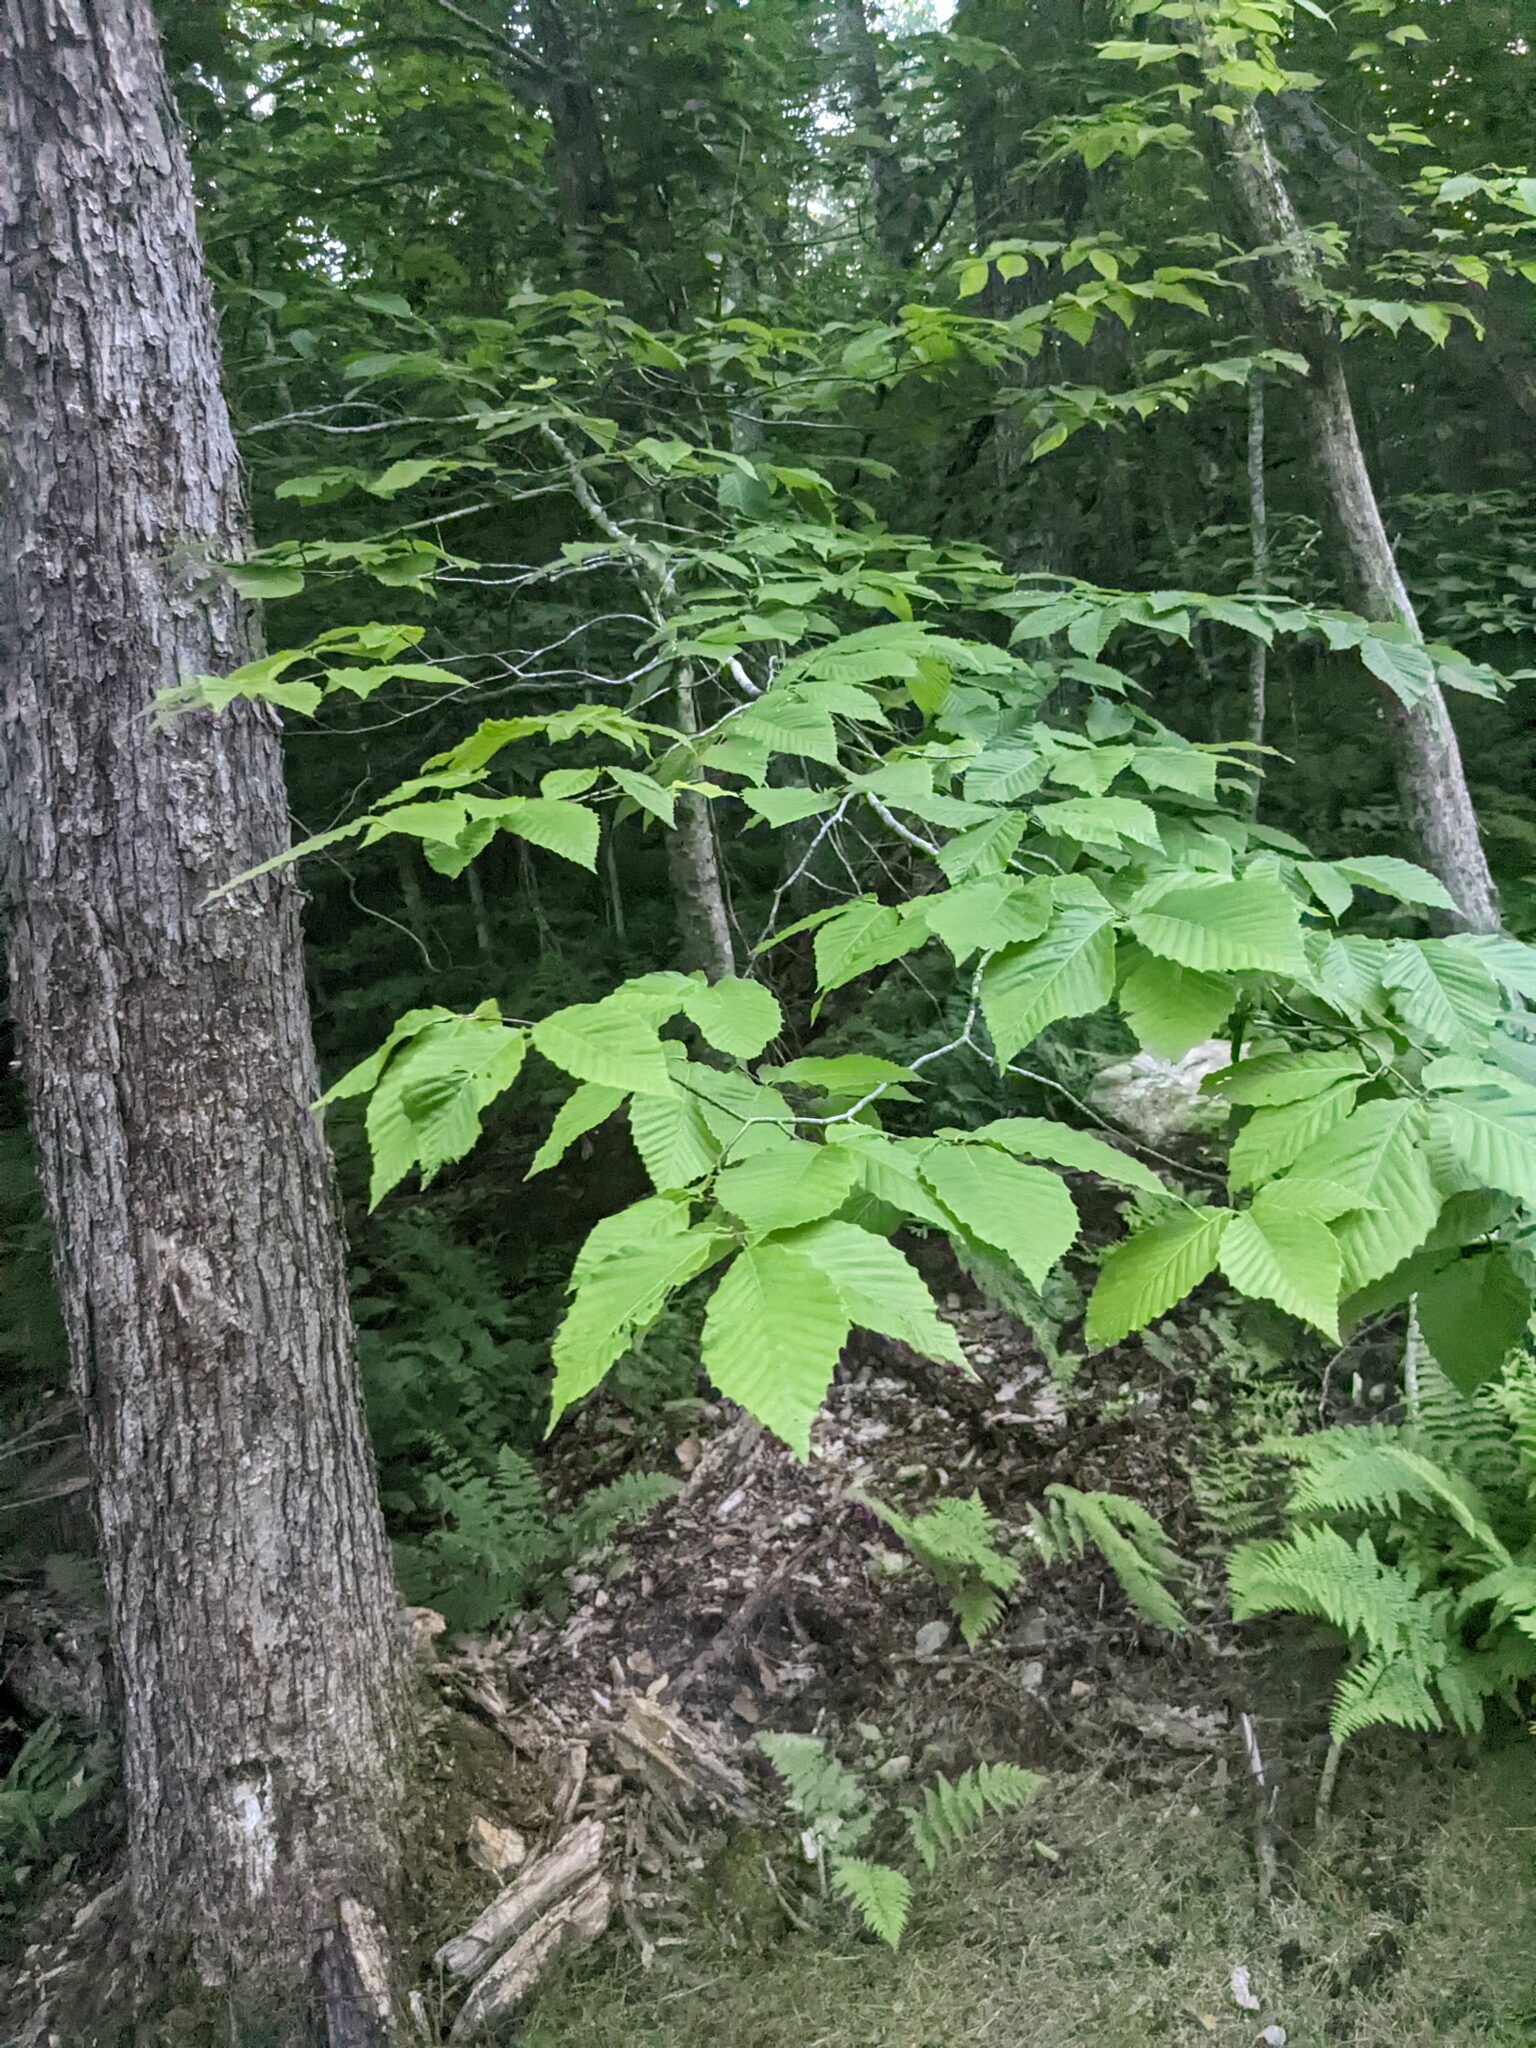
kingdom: Plantae
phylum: Tracheophyta
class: Magnoliopsida
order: Fagales
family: Fagaceae
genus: Fagus
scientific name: Fagus grandifolia
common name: American beech
